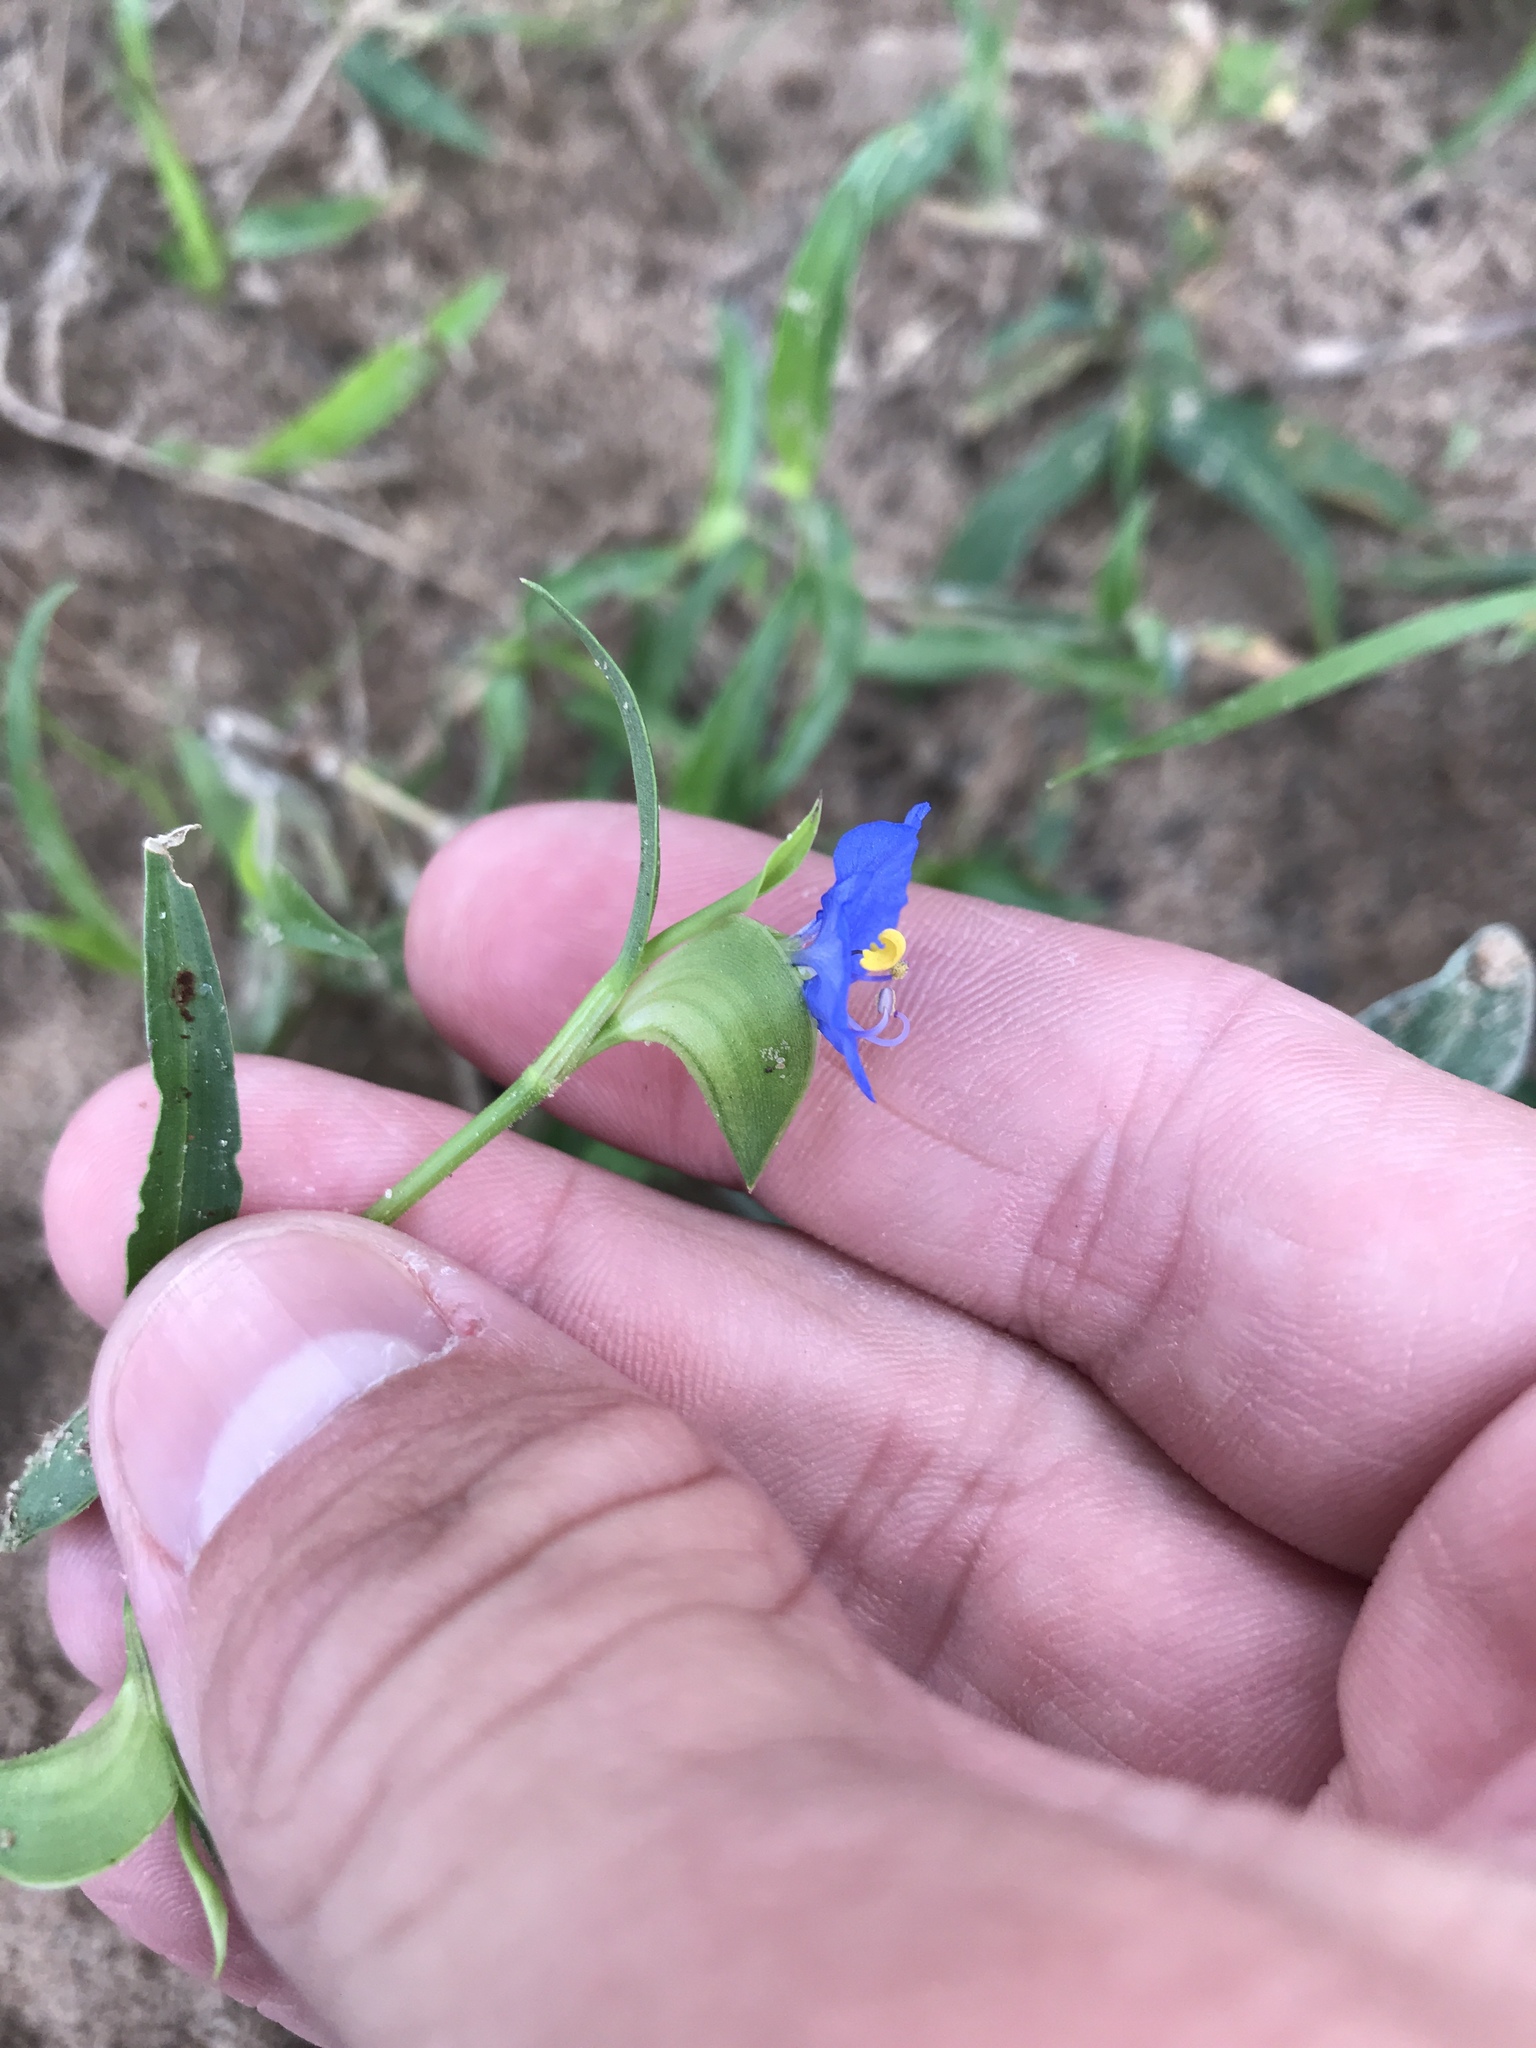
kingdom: Plantae
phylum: Tracheophyta
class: Liliopsida
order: Commelinales
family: Commelinaceae
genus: Commelina
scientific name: Commelina erecta
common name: Blousel blommetjie
